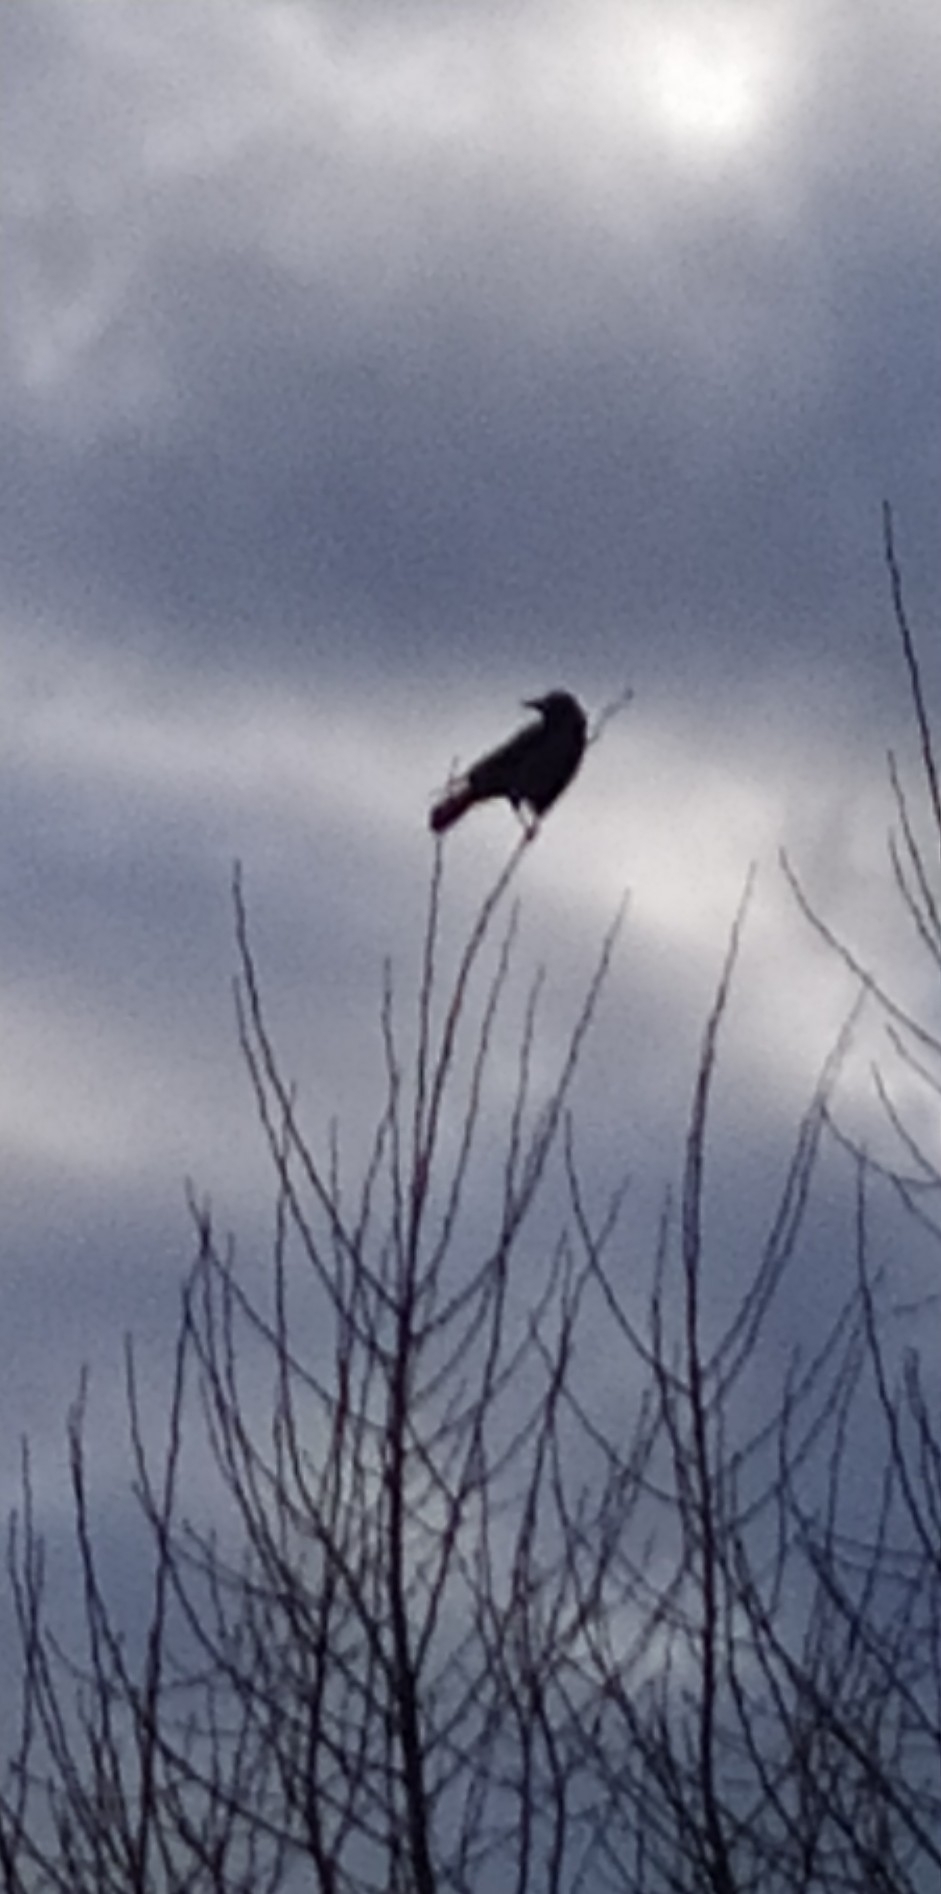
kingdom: Animalia
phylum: Chordata
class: Aves
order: Passeriformes
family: Corvidae
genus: Corvus
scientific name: Corvus cornix
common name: Hooded crow
